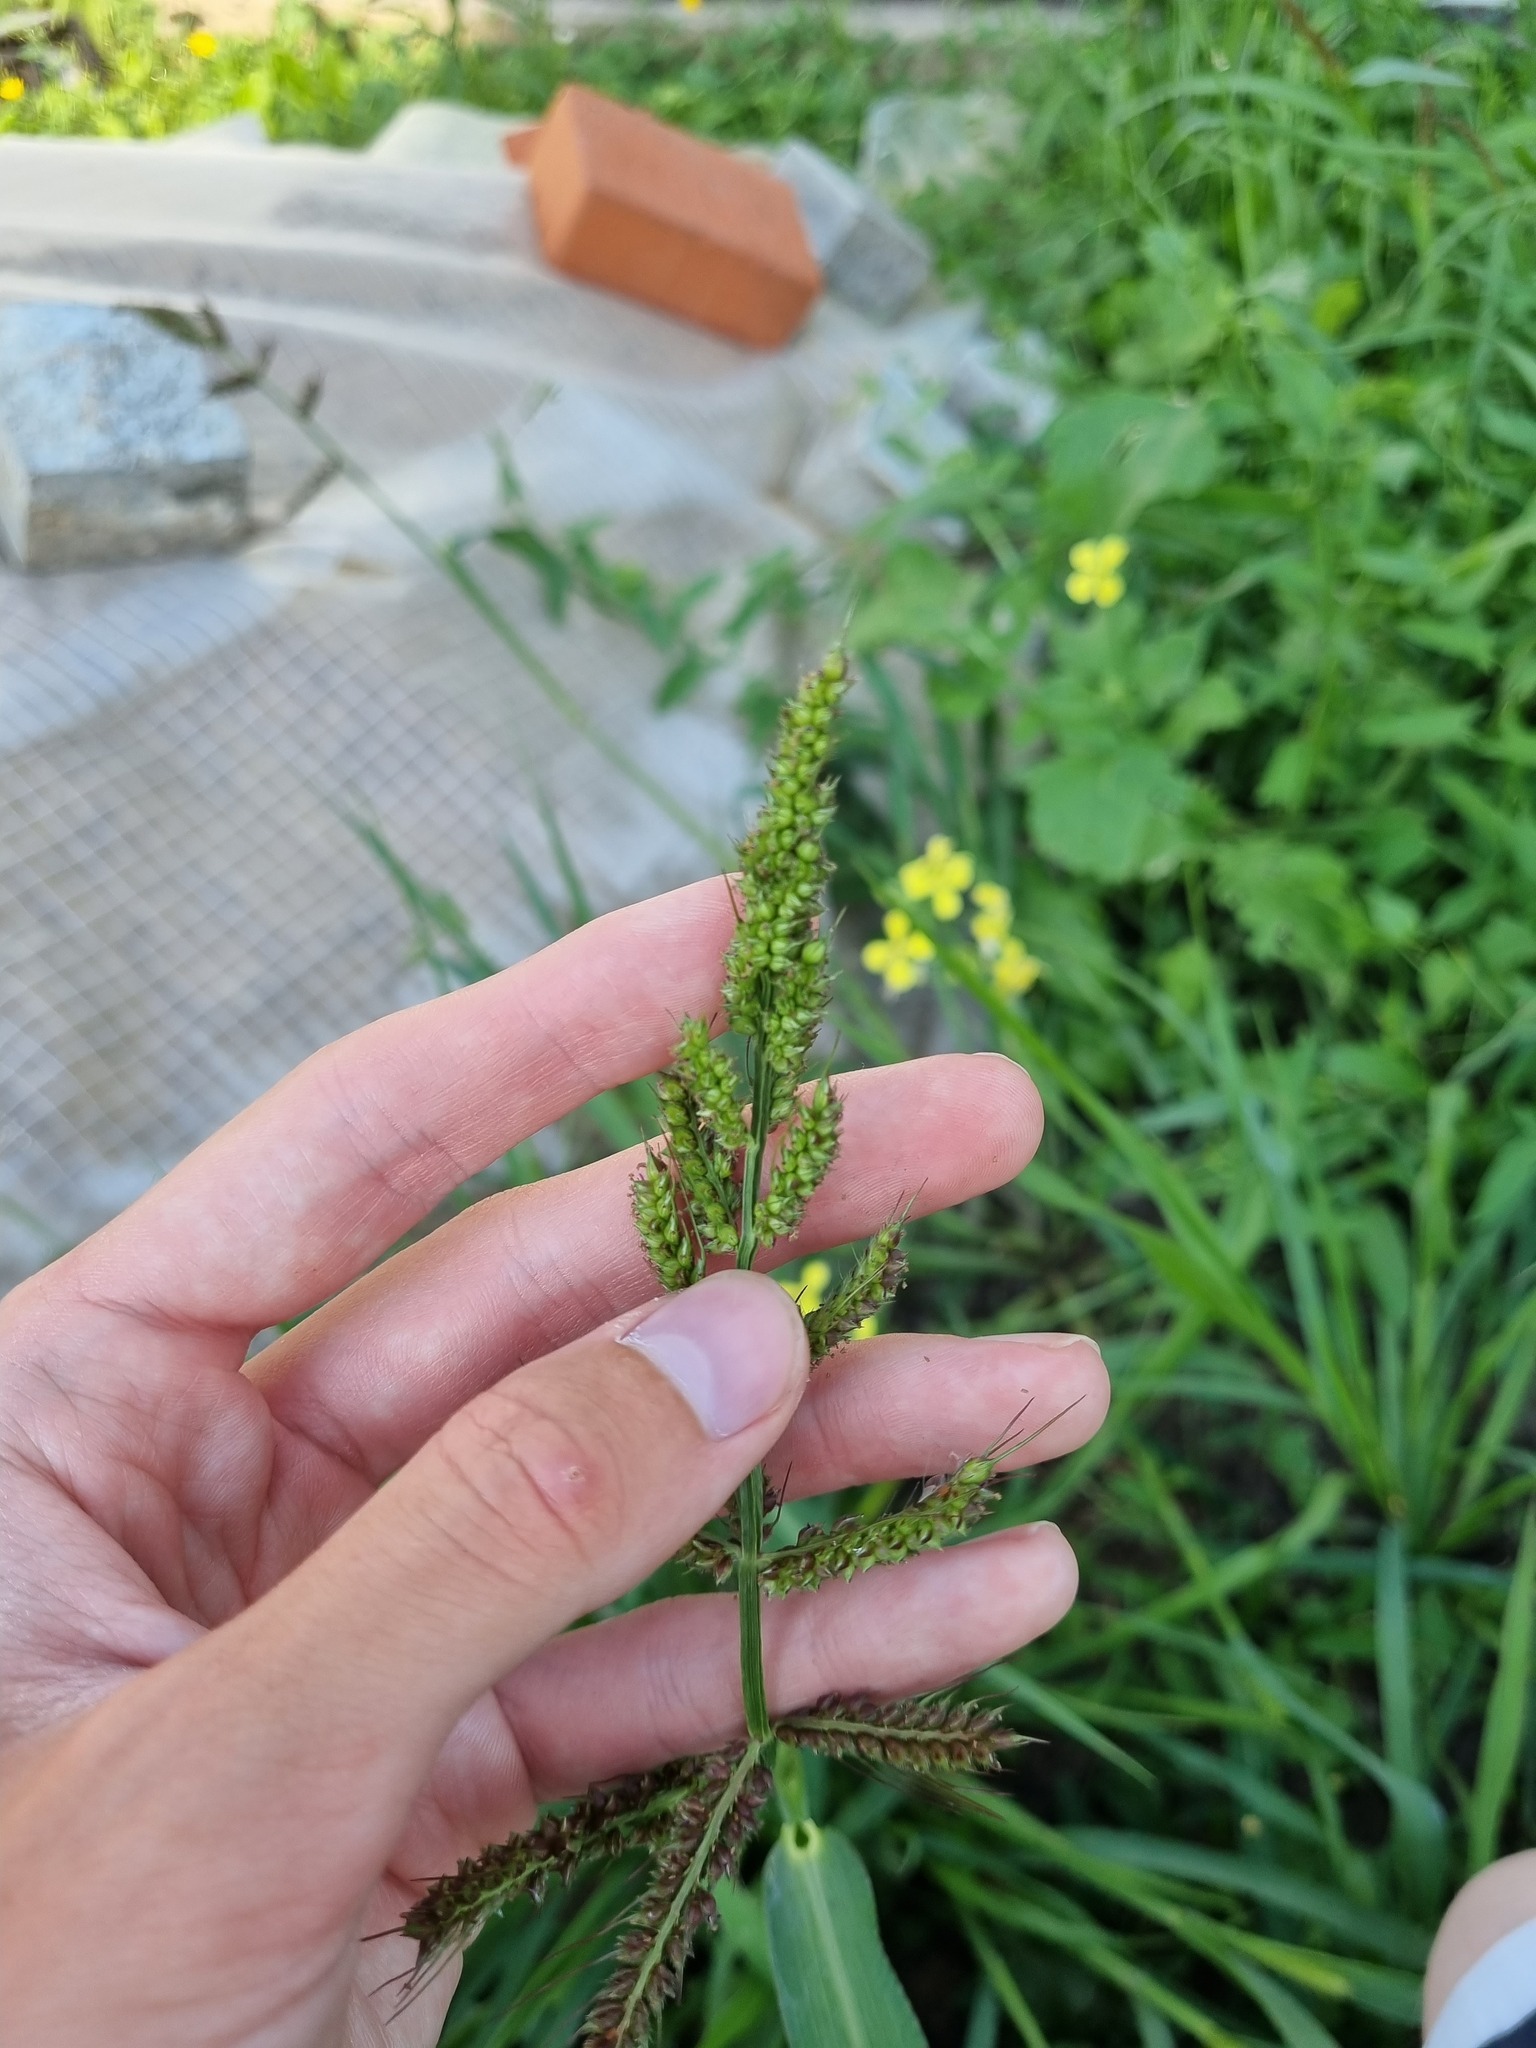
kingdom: Plantae
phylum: Tracheophyta
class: Liliopsida
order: Poales
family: Poaceae
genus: Echinochloa
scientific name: Echinochloa crus-galli
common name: Cockspur
